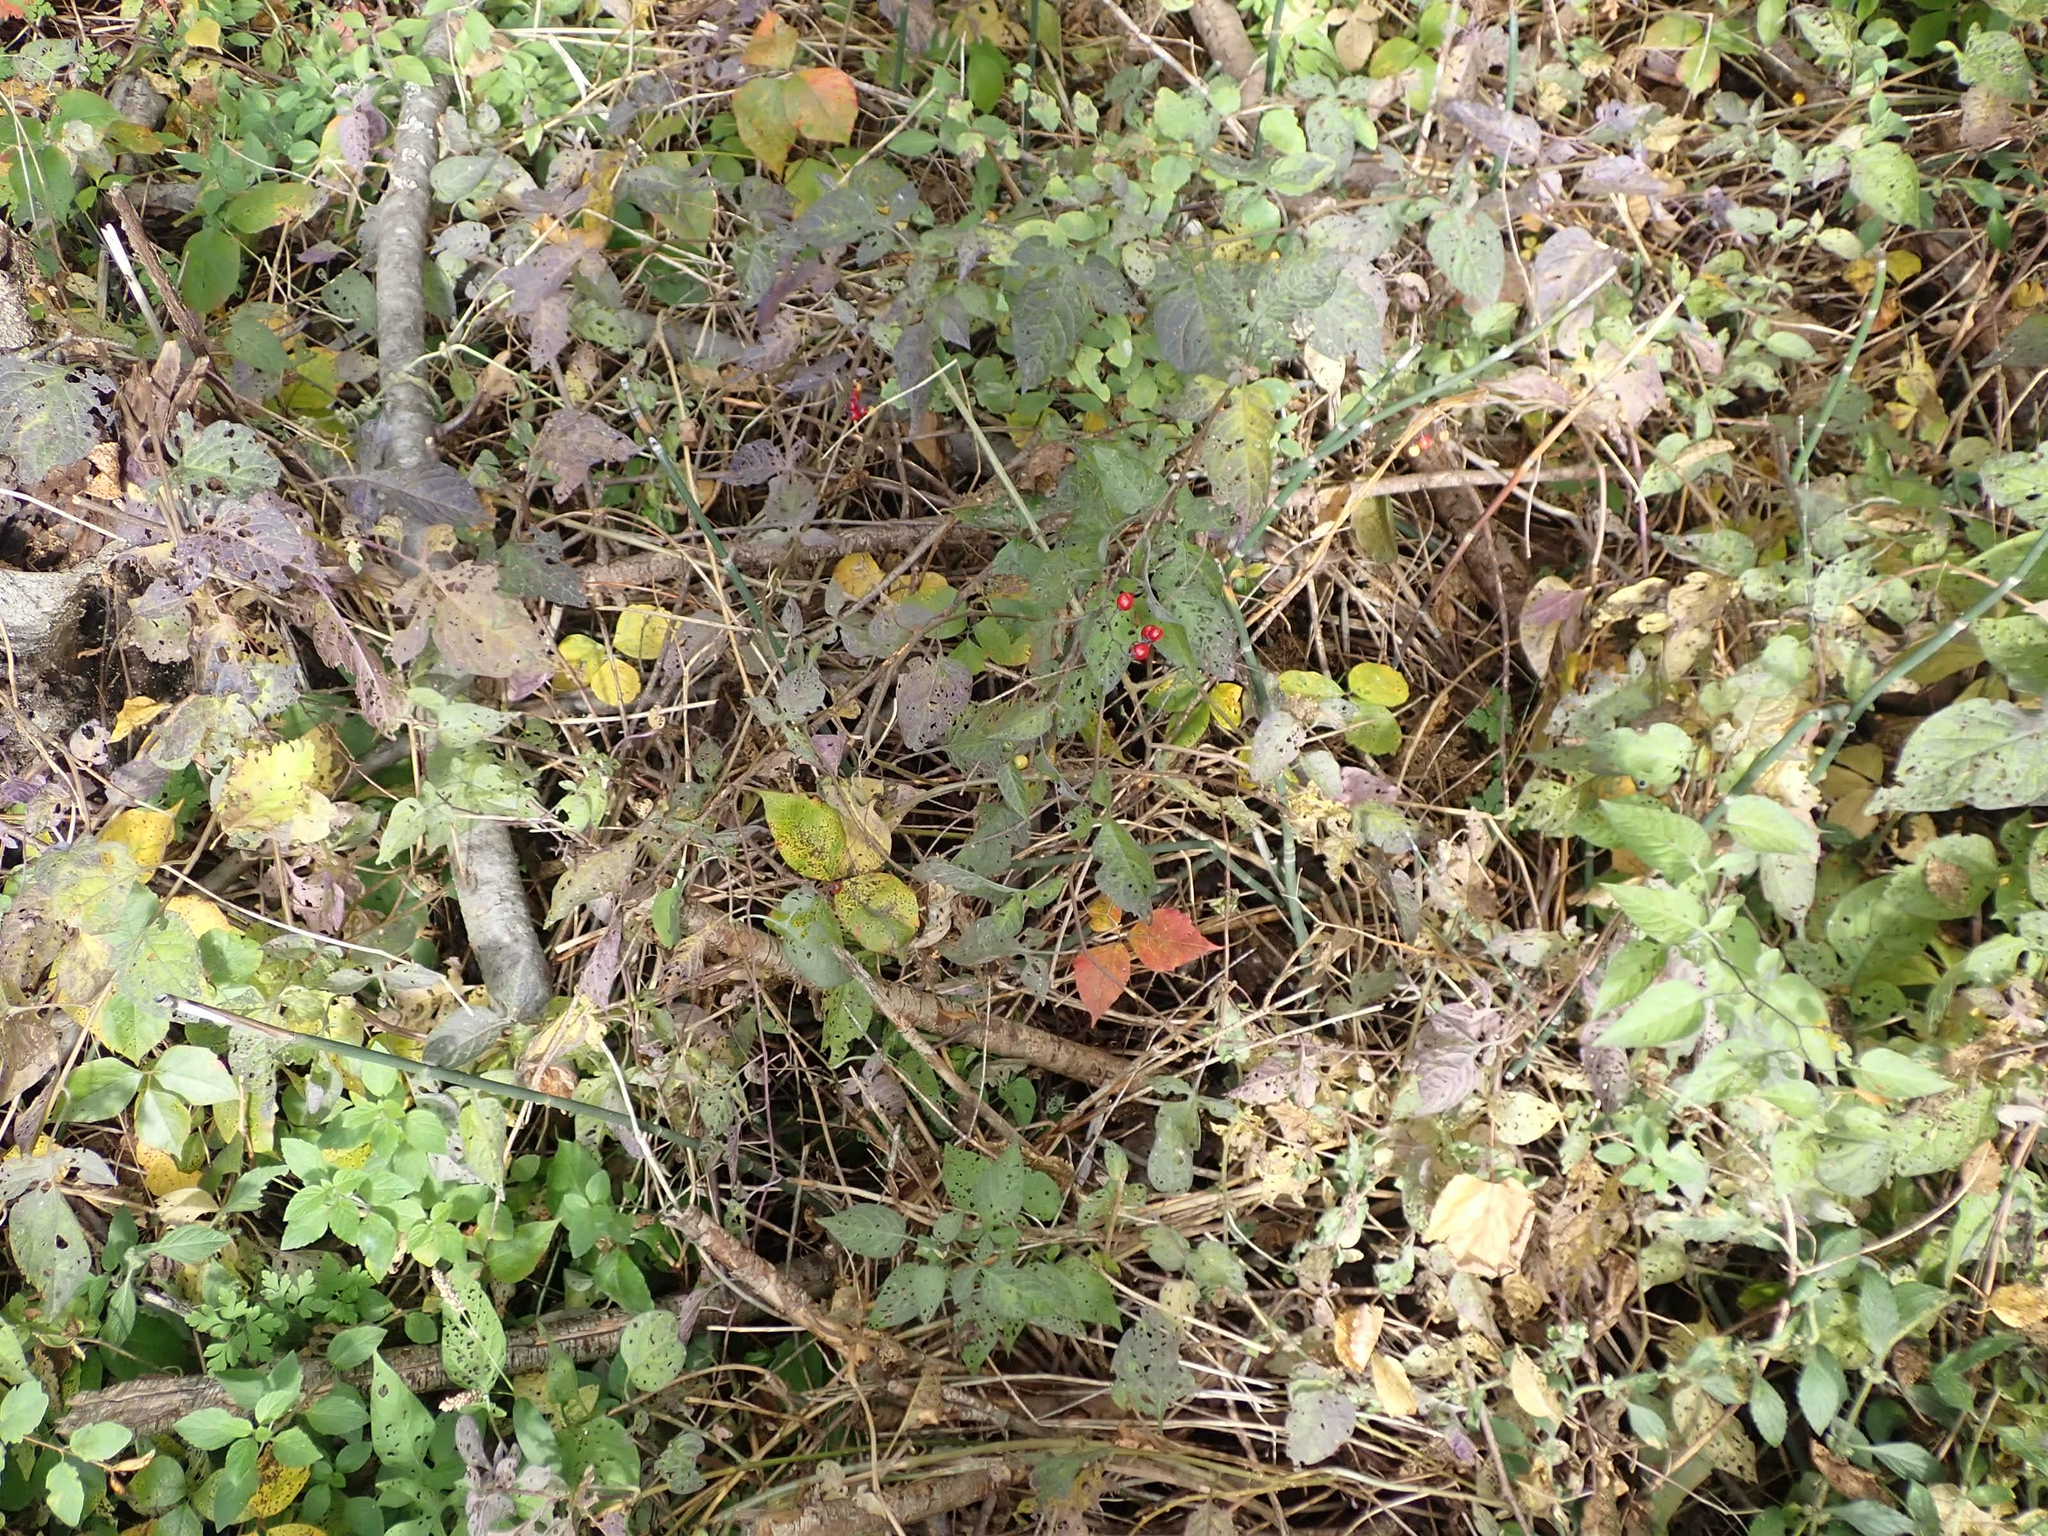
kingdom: Plantae
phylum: Tracheophyta
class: Magnoliopsida
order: Solanales
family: Solanaceae
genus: Solanum
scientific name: Solanum dulcamara
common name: Climbing nightshade
